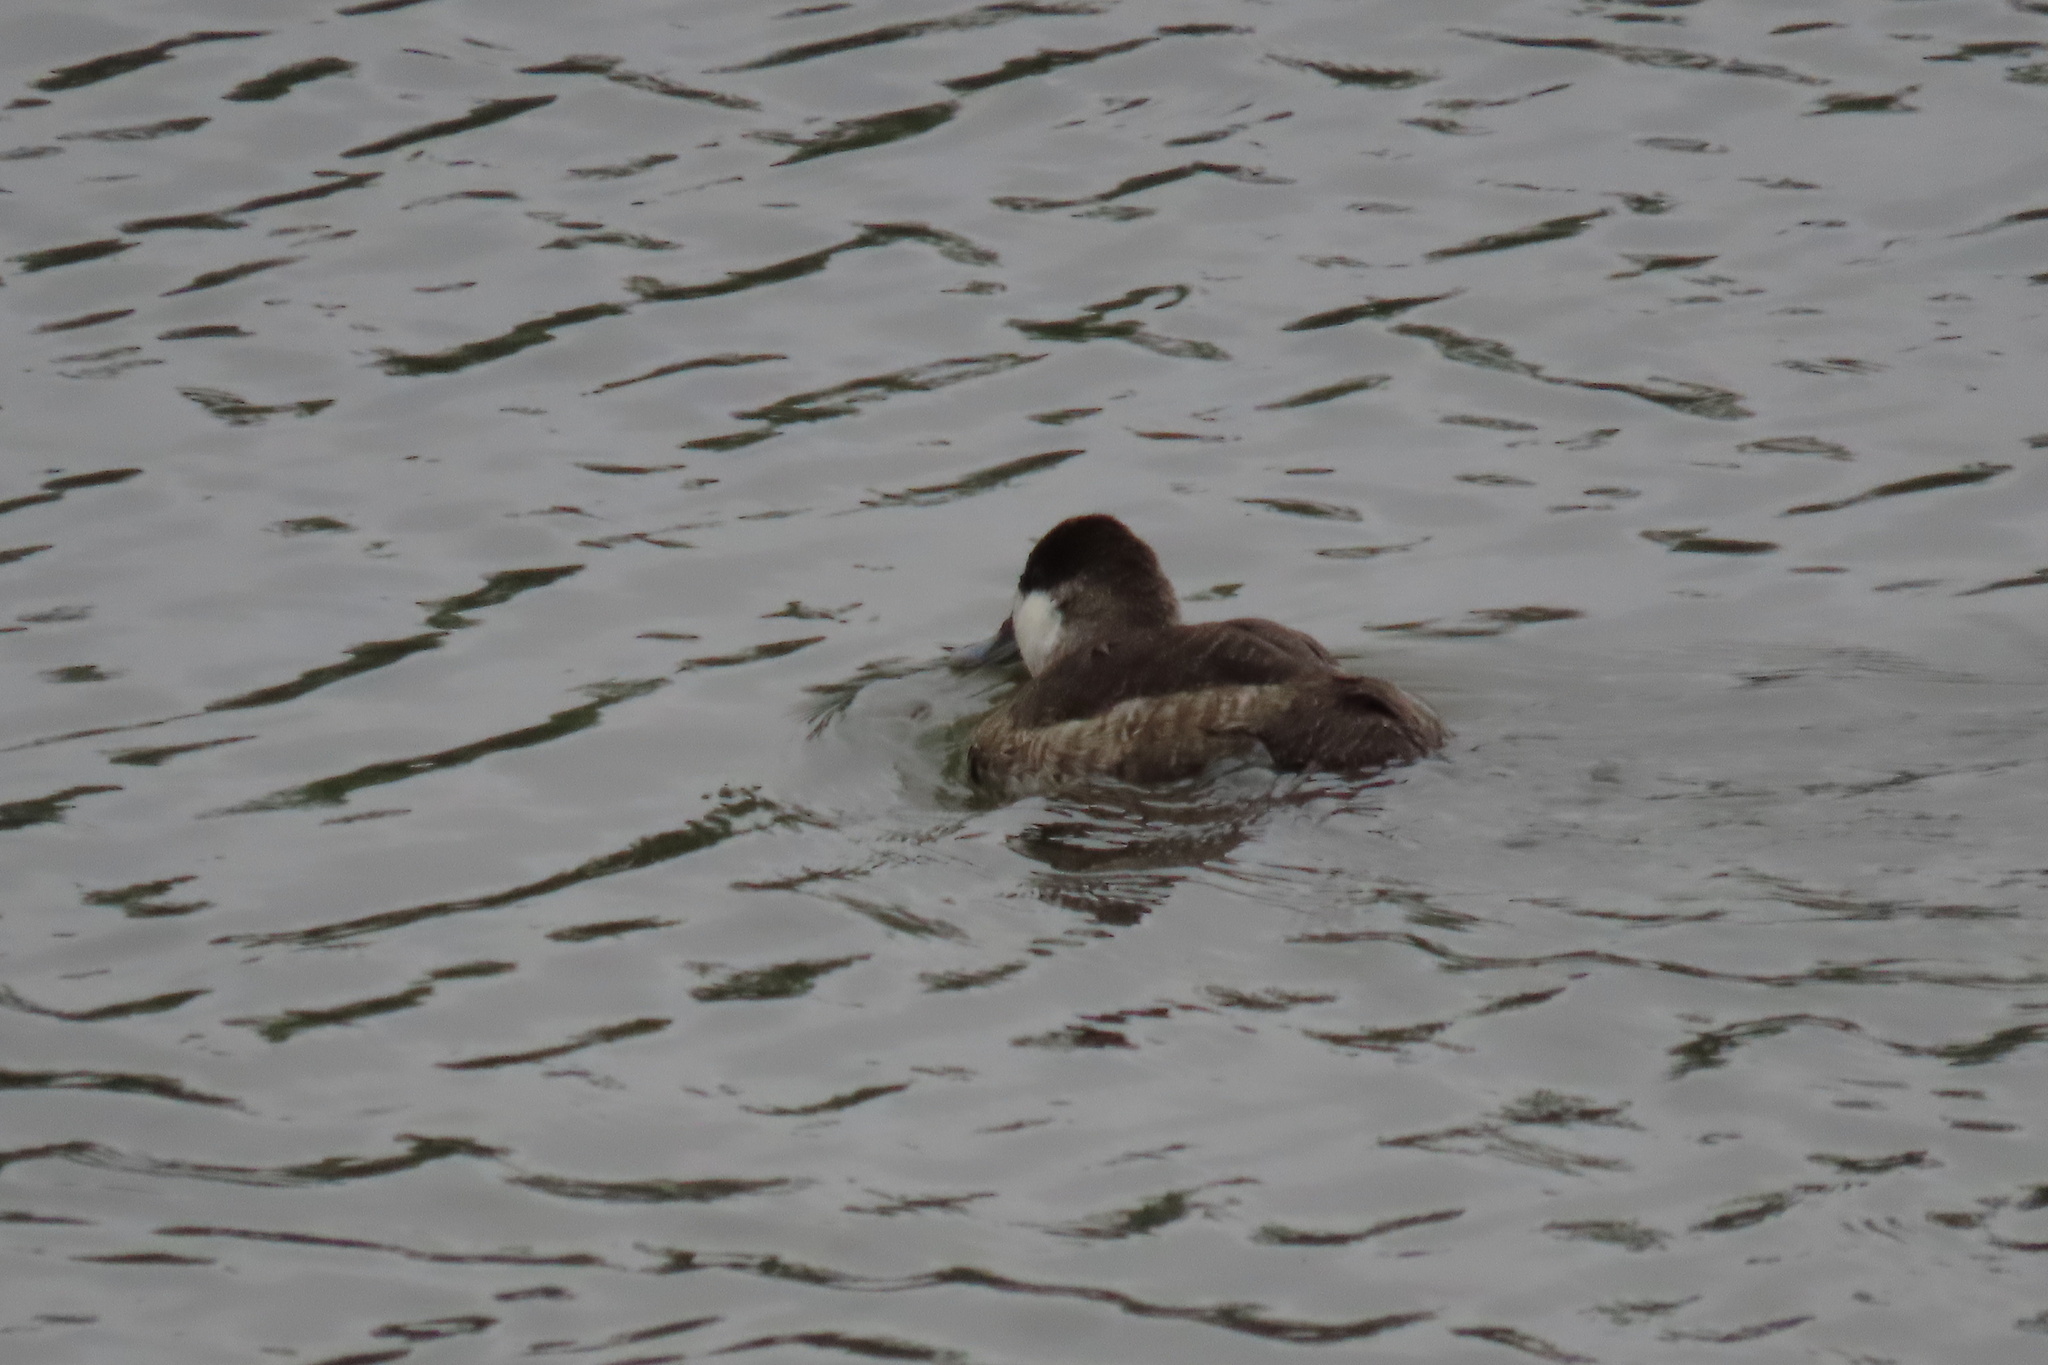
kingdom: Animalia
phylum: Chordata
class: Aves
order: Anseriformes
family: Anatidae
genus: Oxyura
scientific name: Oxyura jamaicensis
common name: Ruddy duck
